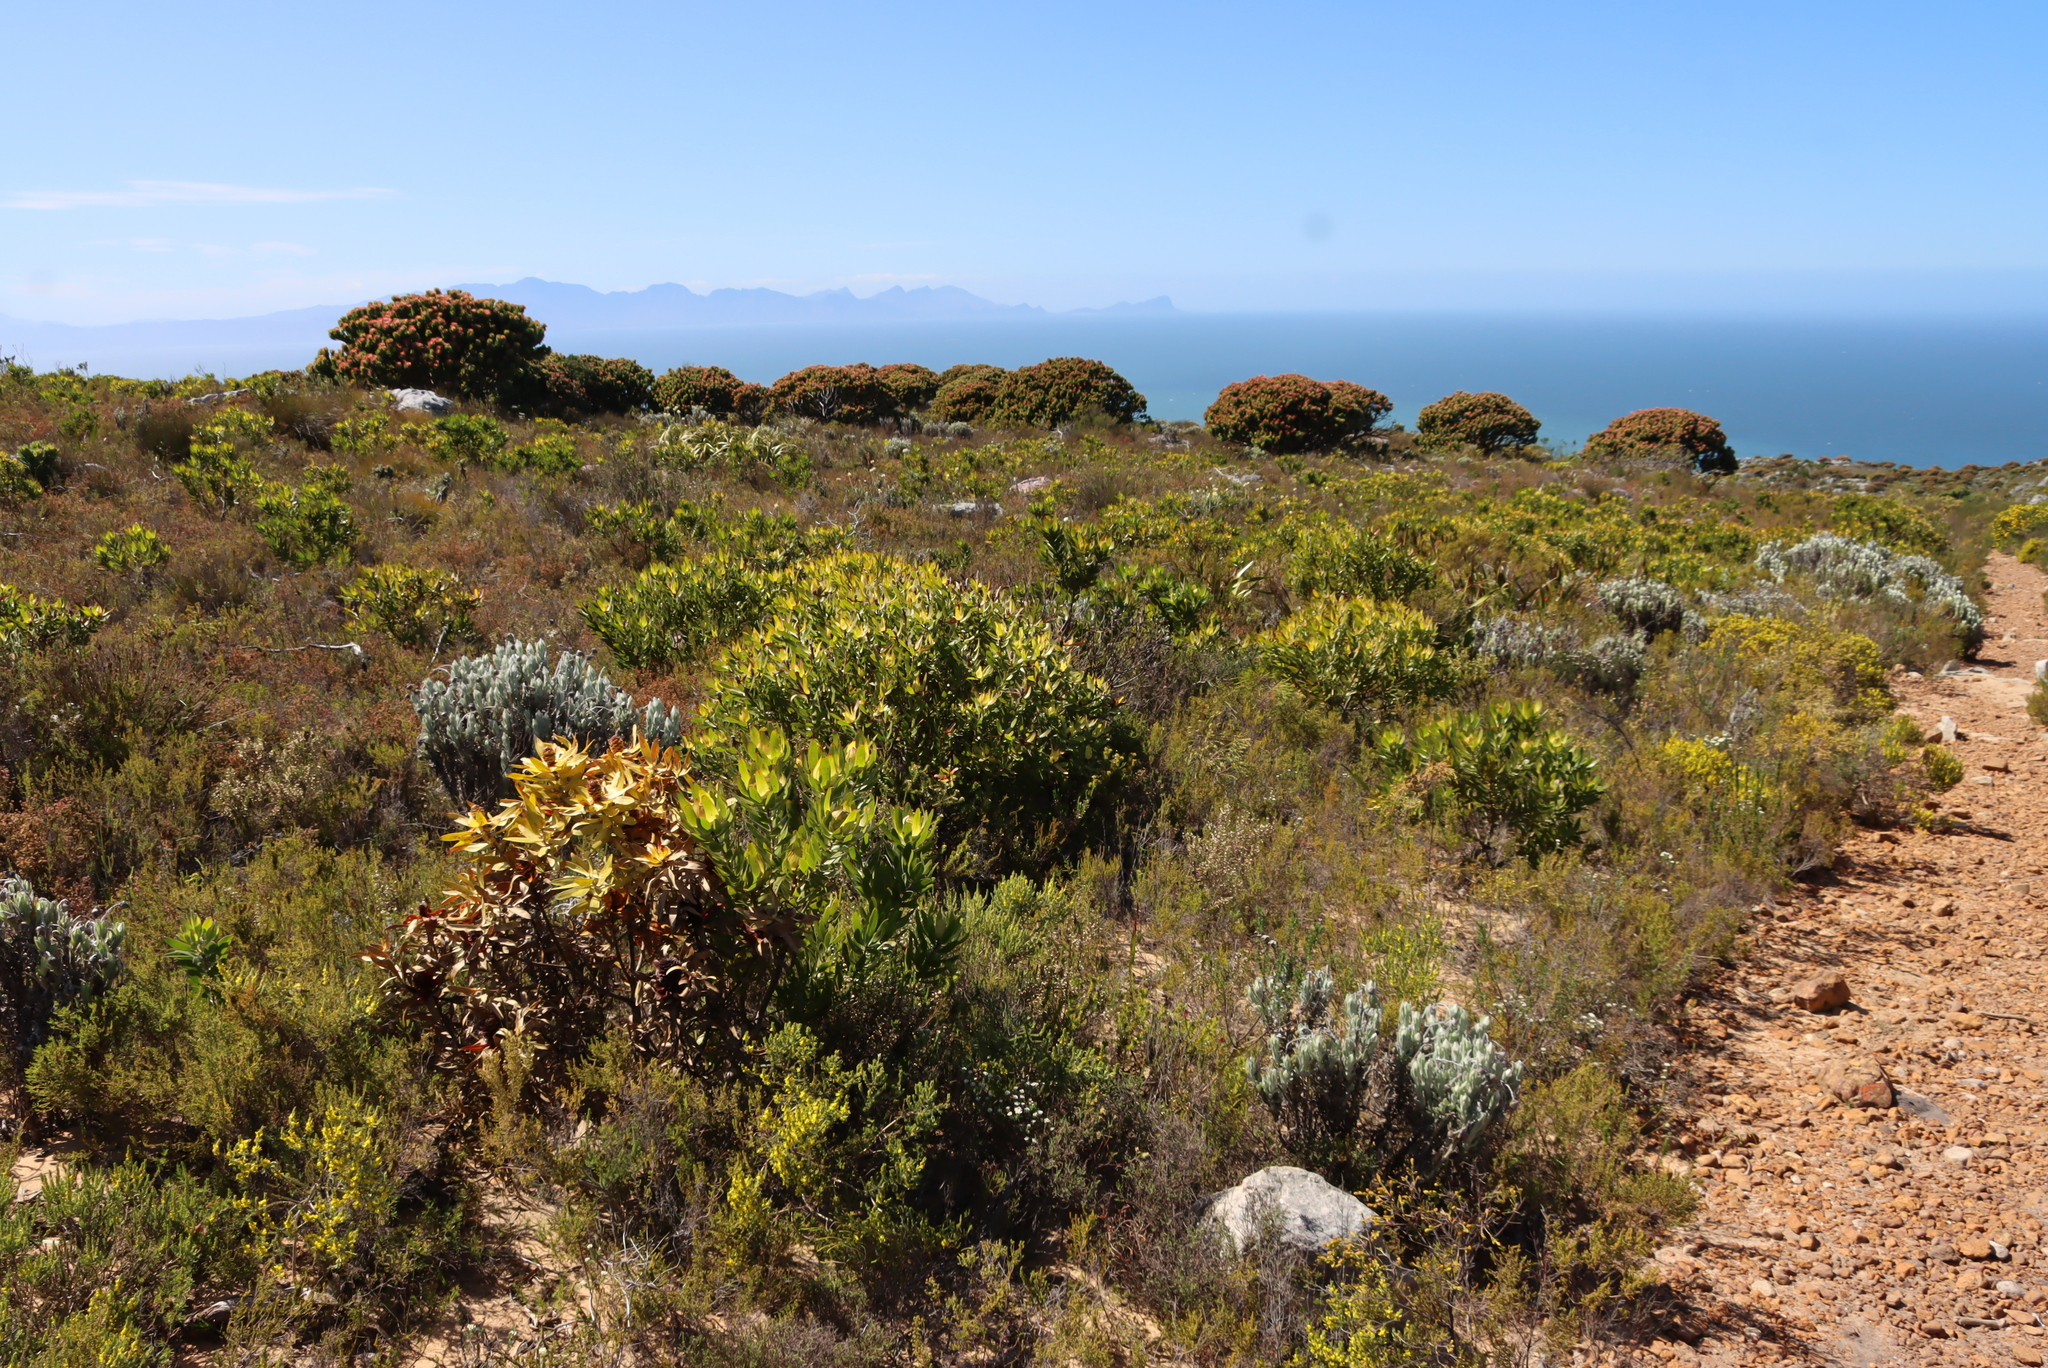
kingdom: Plantae
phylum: Tracheophyta
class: Magnoliopsida
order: Proteales
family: Proteaceae
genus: Leucadendron
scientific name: Leucadendron laureolum
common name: Golden sunshinebush
